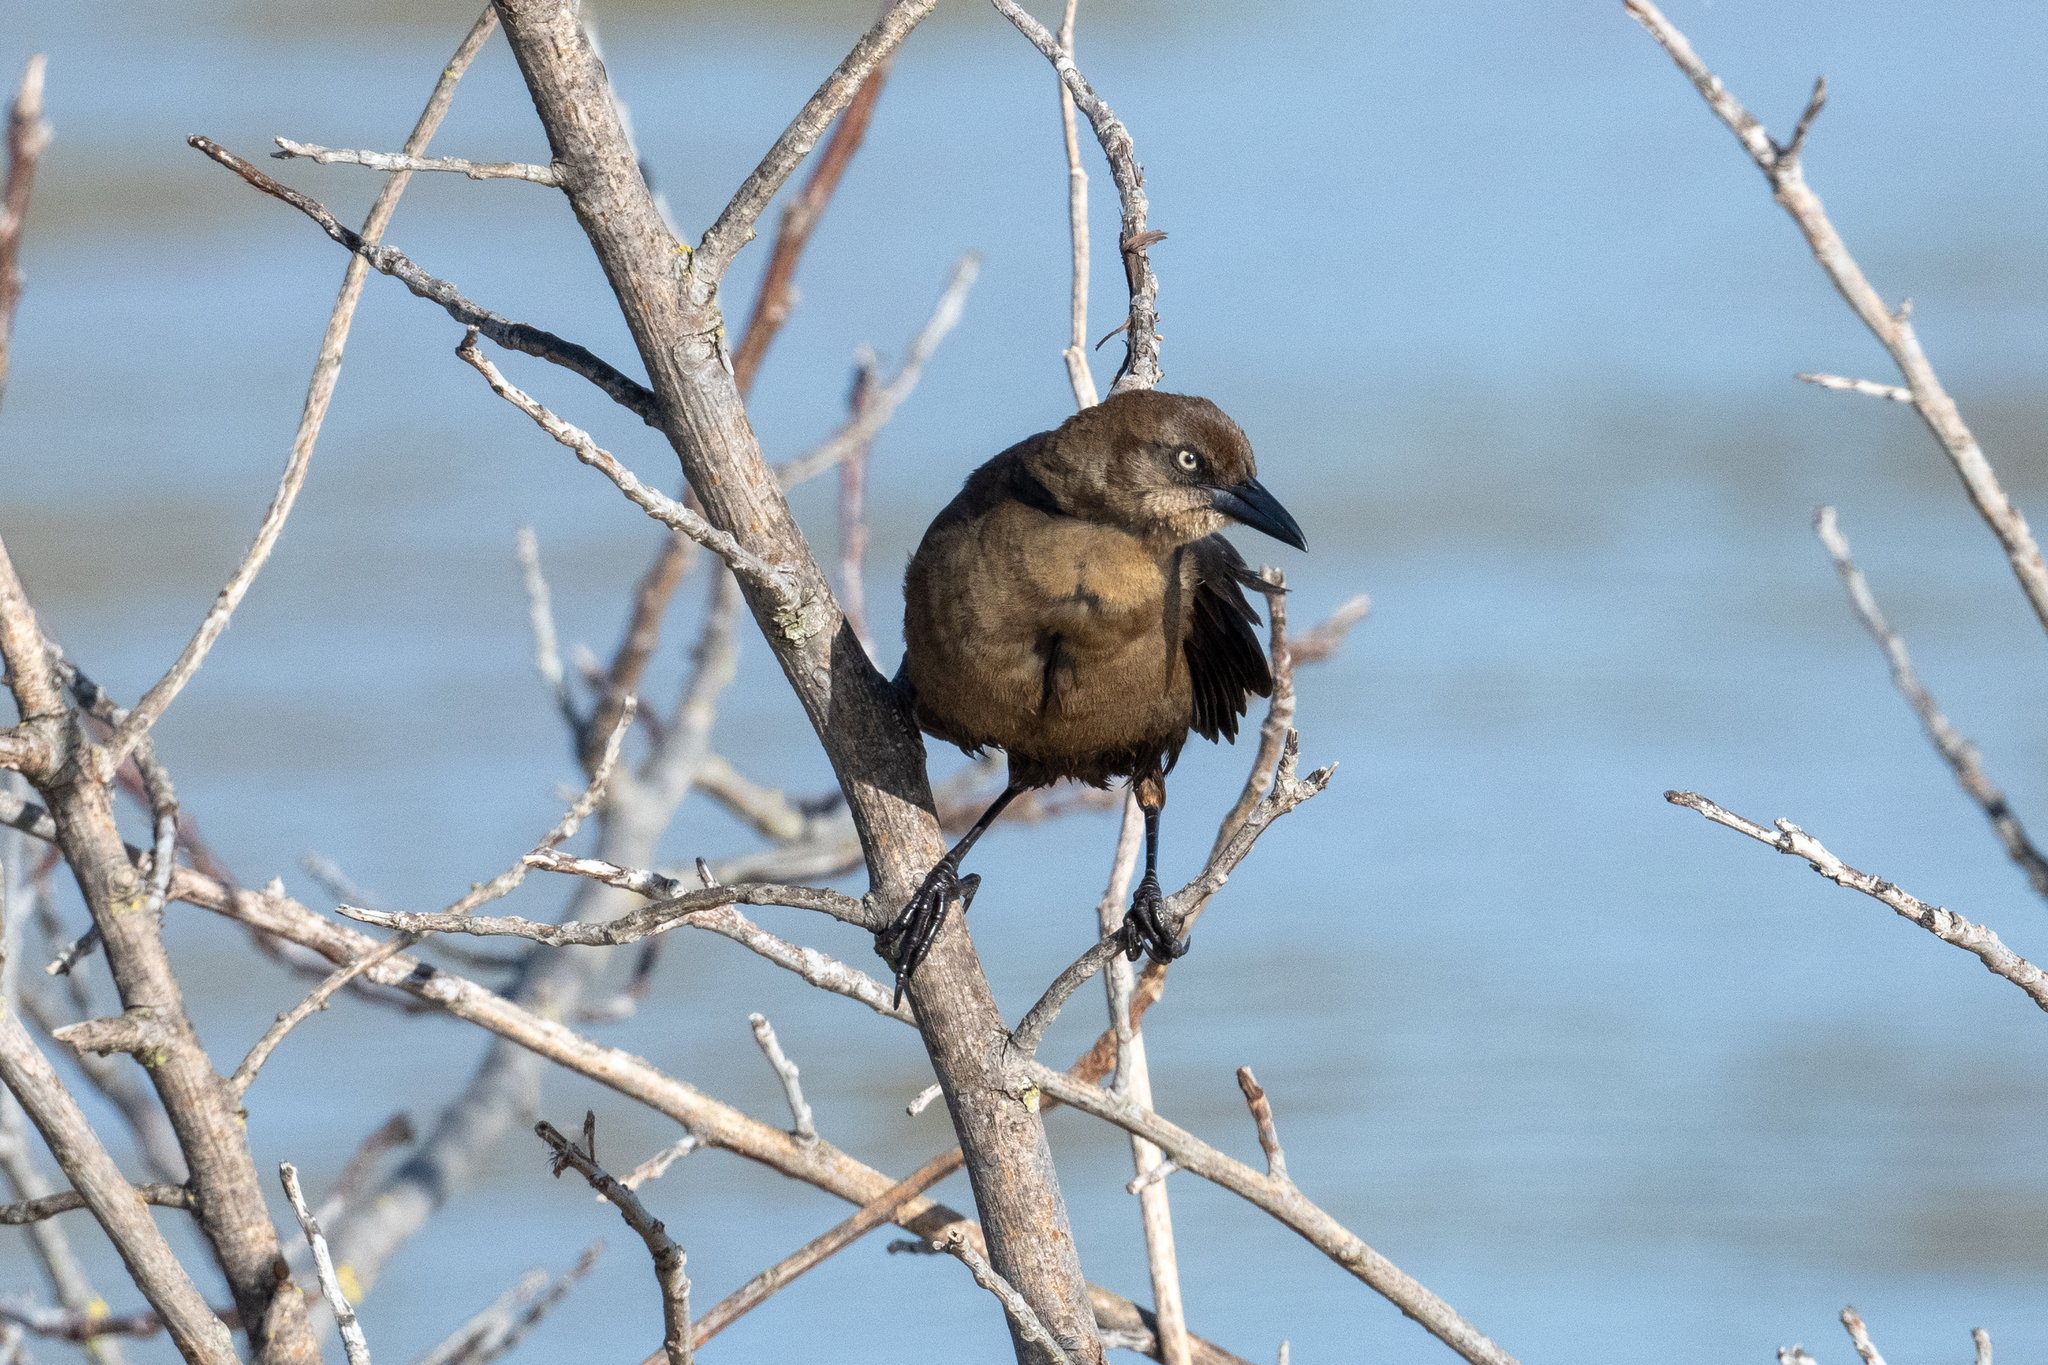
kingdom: Animalia
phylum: Chordata
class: Aves
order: Passeriformes
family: Icteridae
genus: Quiscalus
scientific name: Quiscalus mexicanus
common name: Great-tailed grackle
